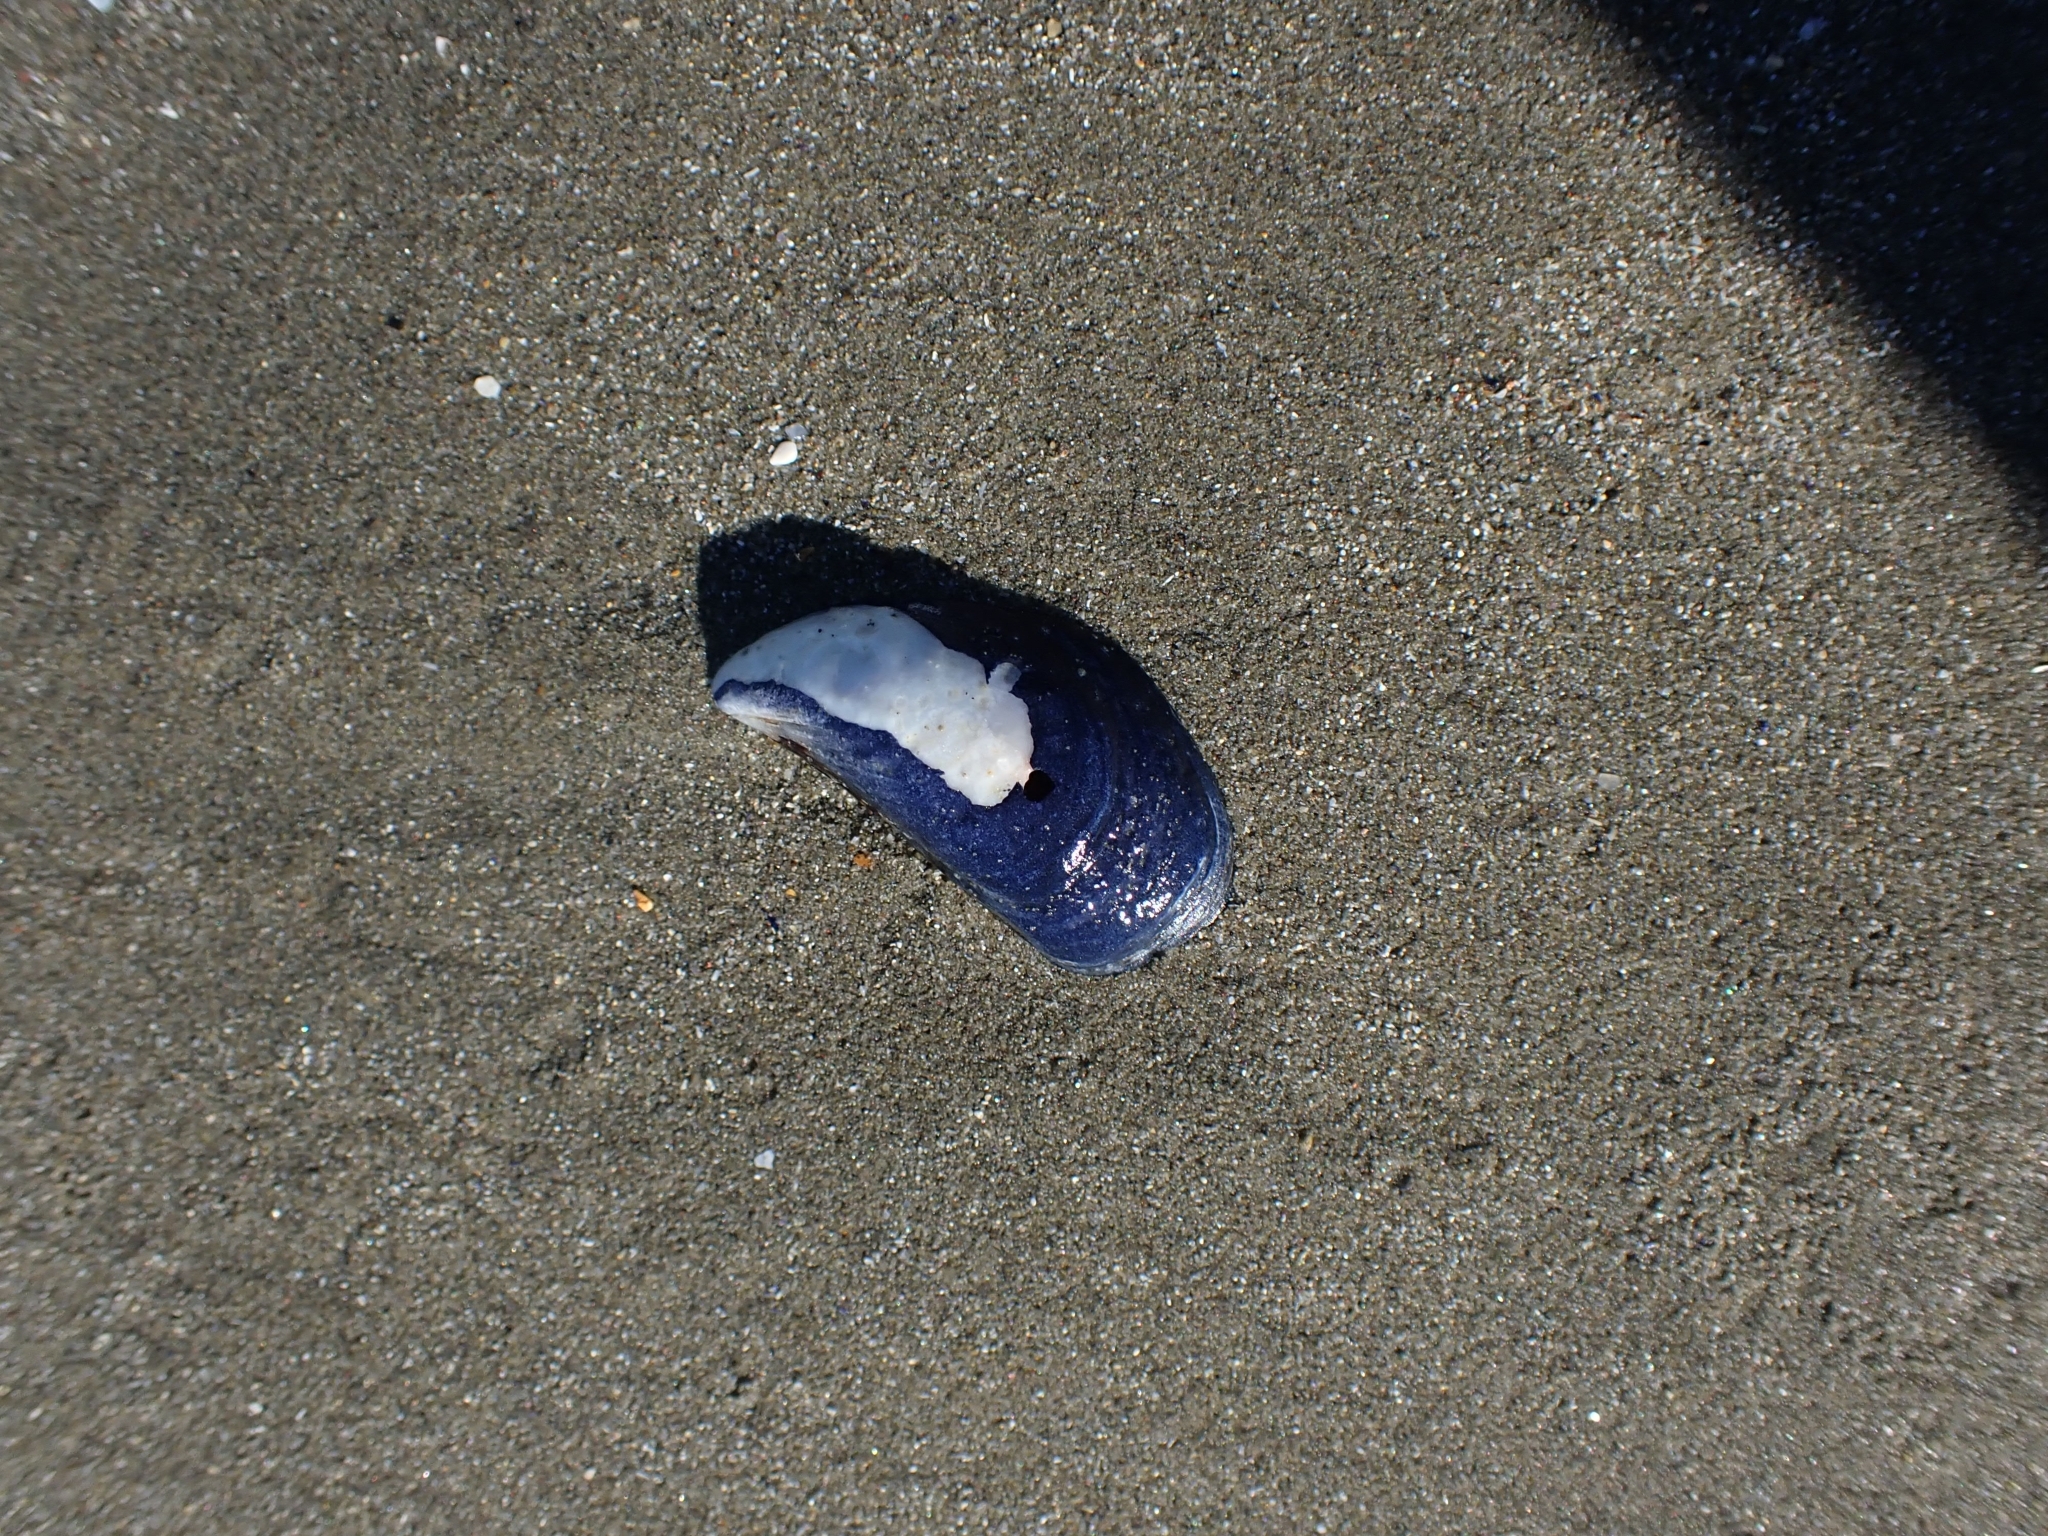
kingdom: Animalia
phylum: Mollusca
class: Bivalvia
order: Mytilida
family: Mytilidae
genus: Mytilus
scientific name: Mytilus planulatus
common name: Australian mussel
